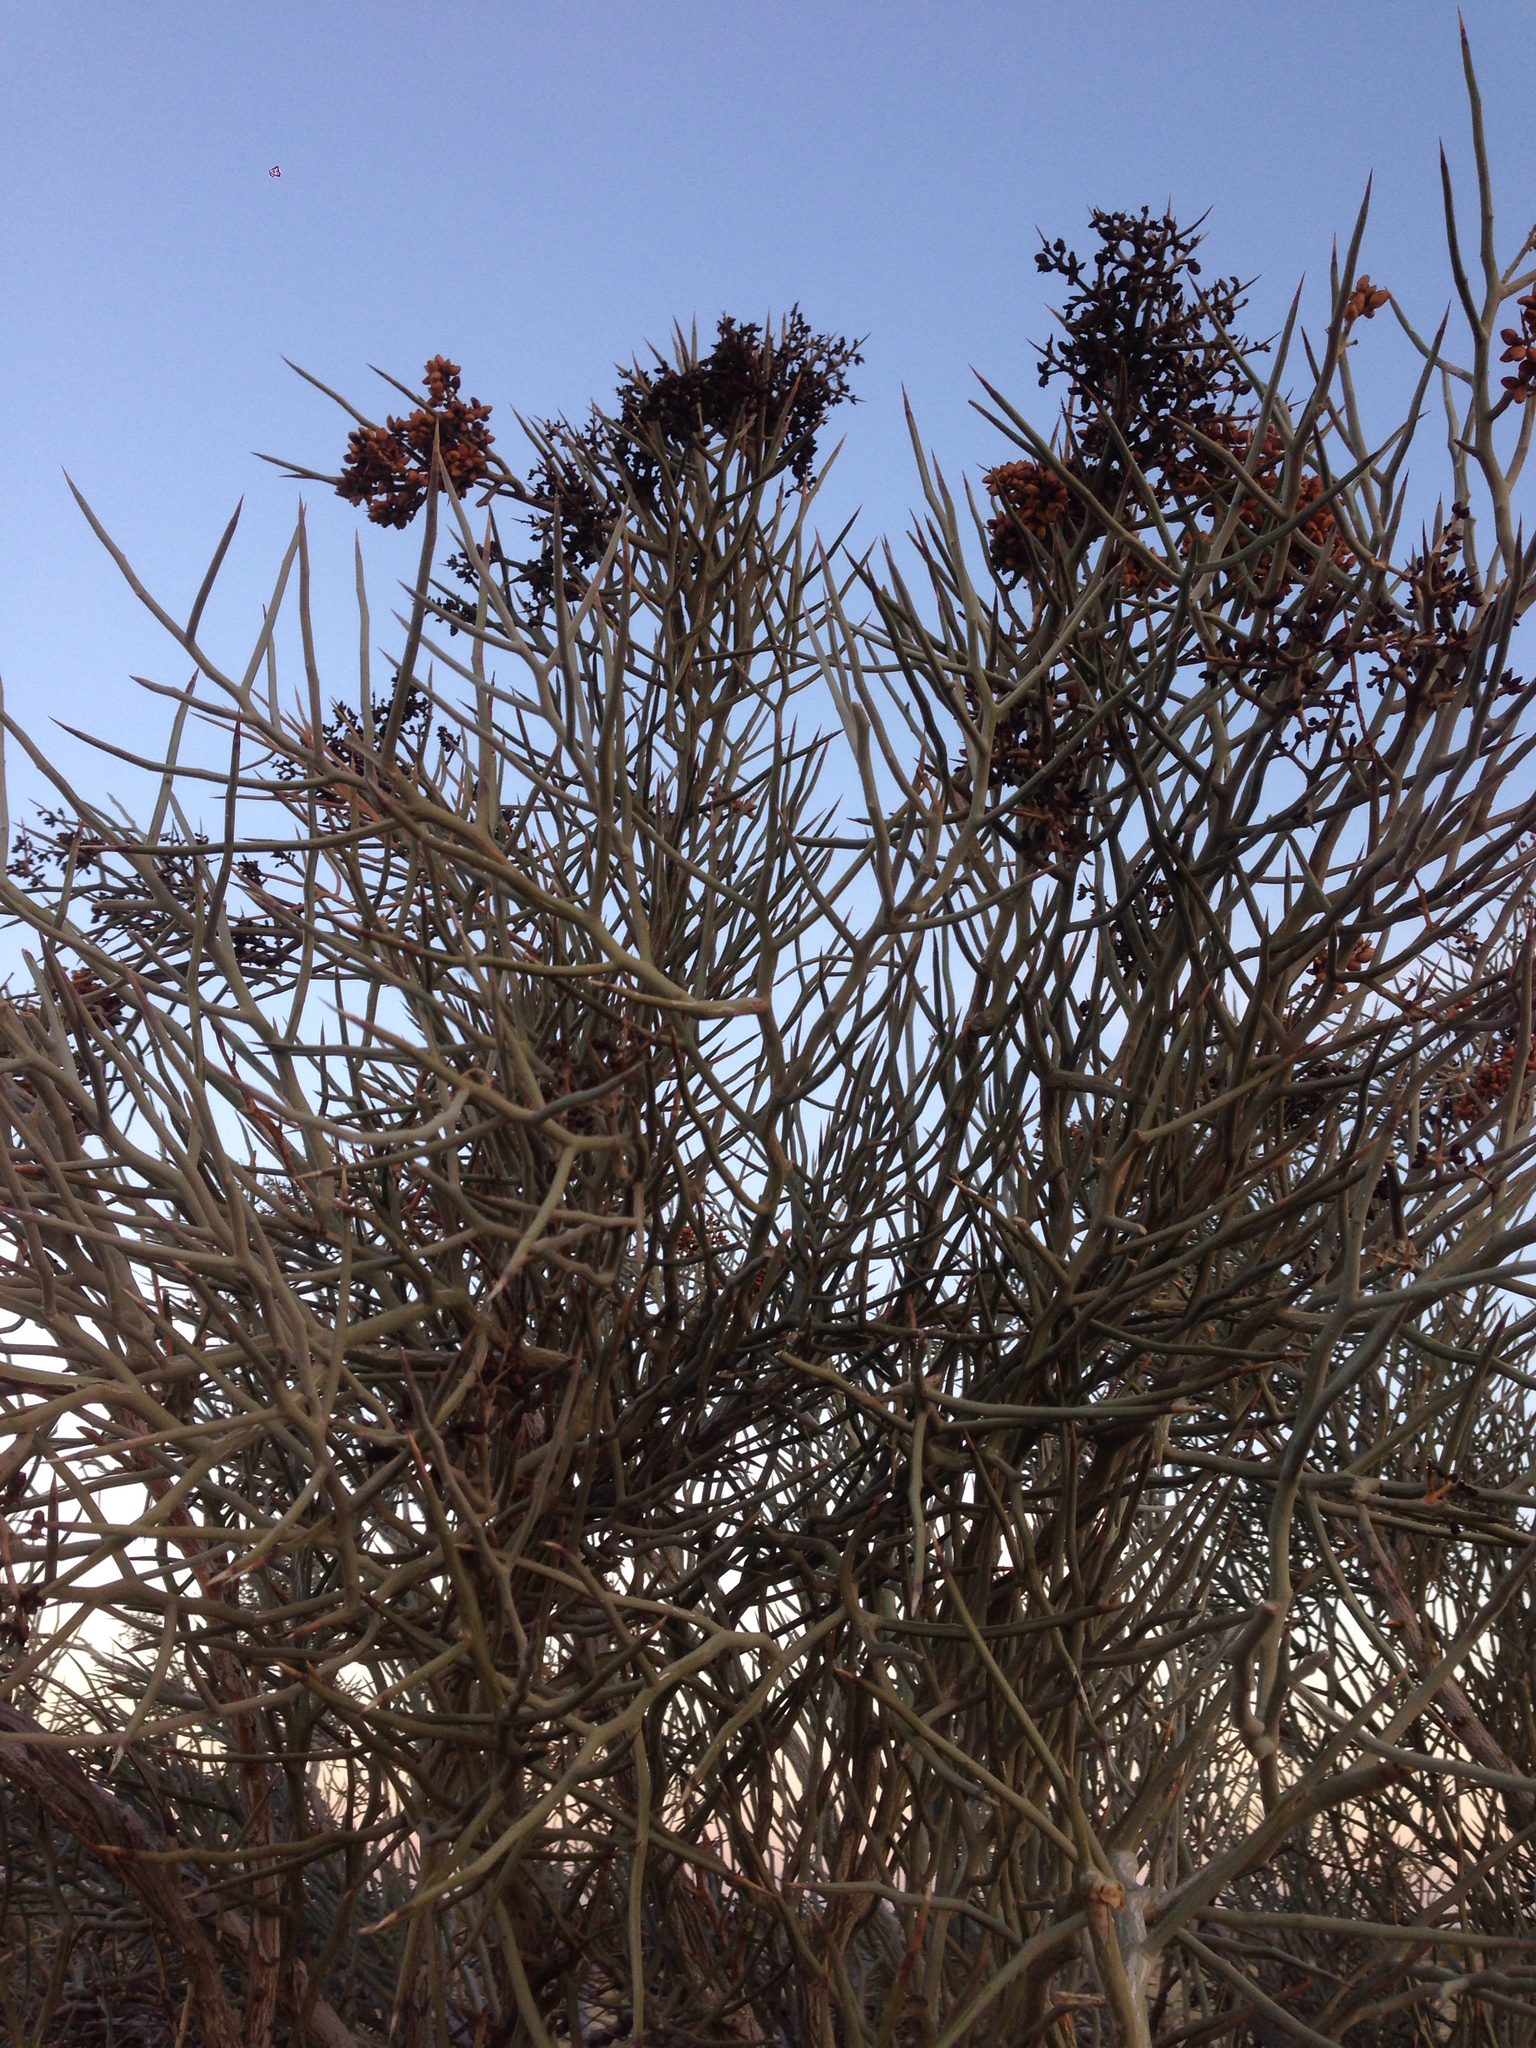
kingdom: Plantae
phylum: Tracheophyta
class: Magnoliopsida
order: Sapindales
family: Simaroubaceae
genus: Holacantha
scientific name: Holacantha emoryi
